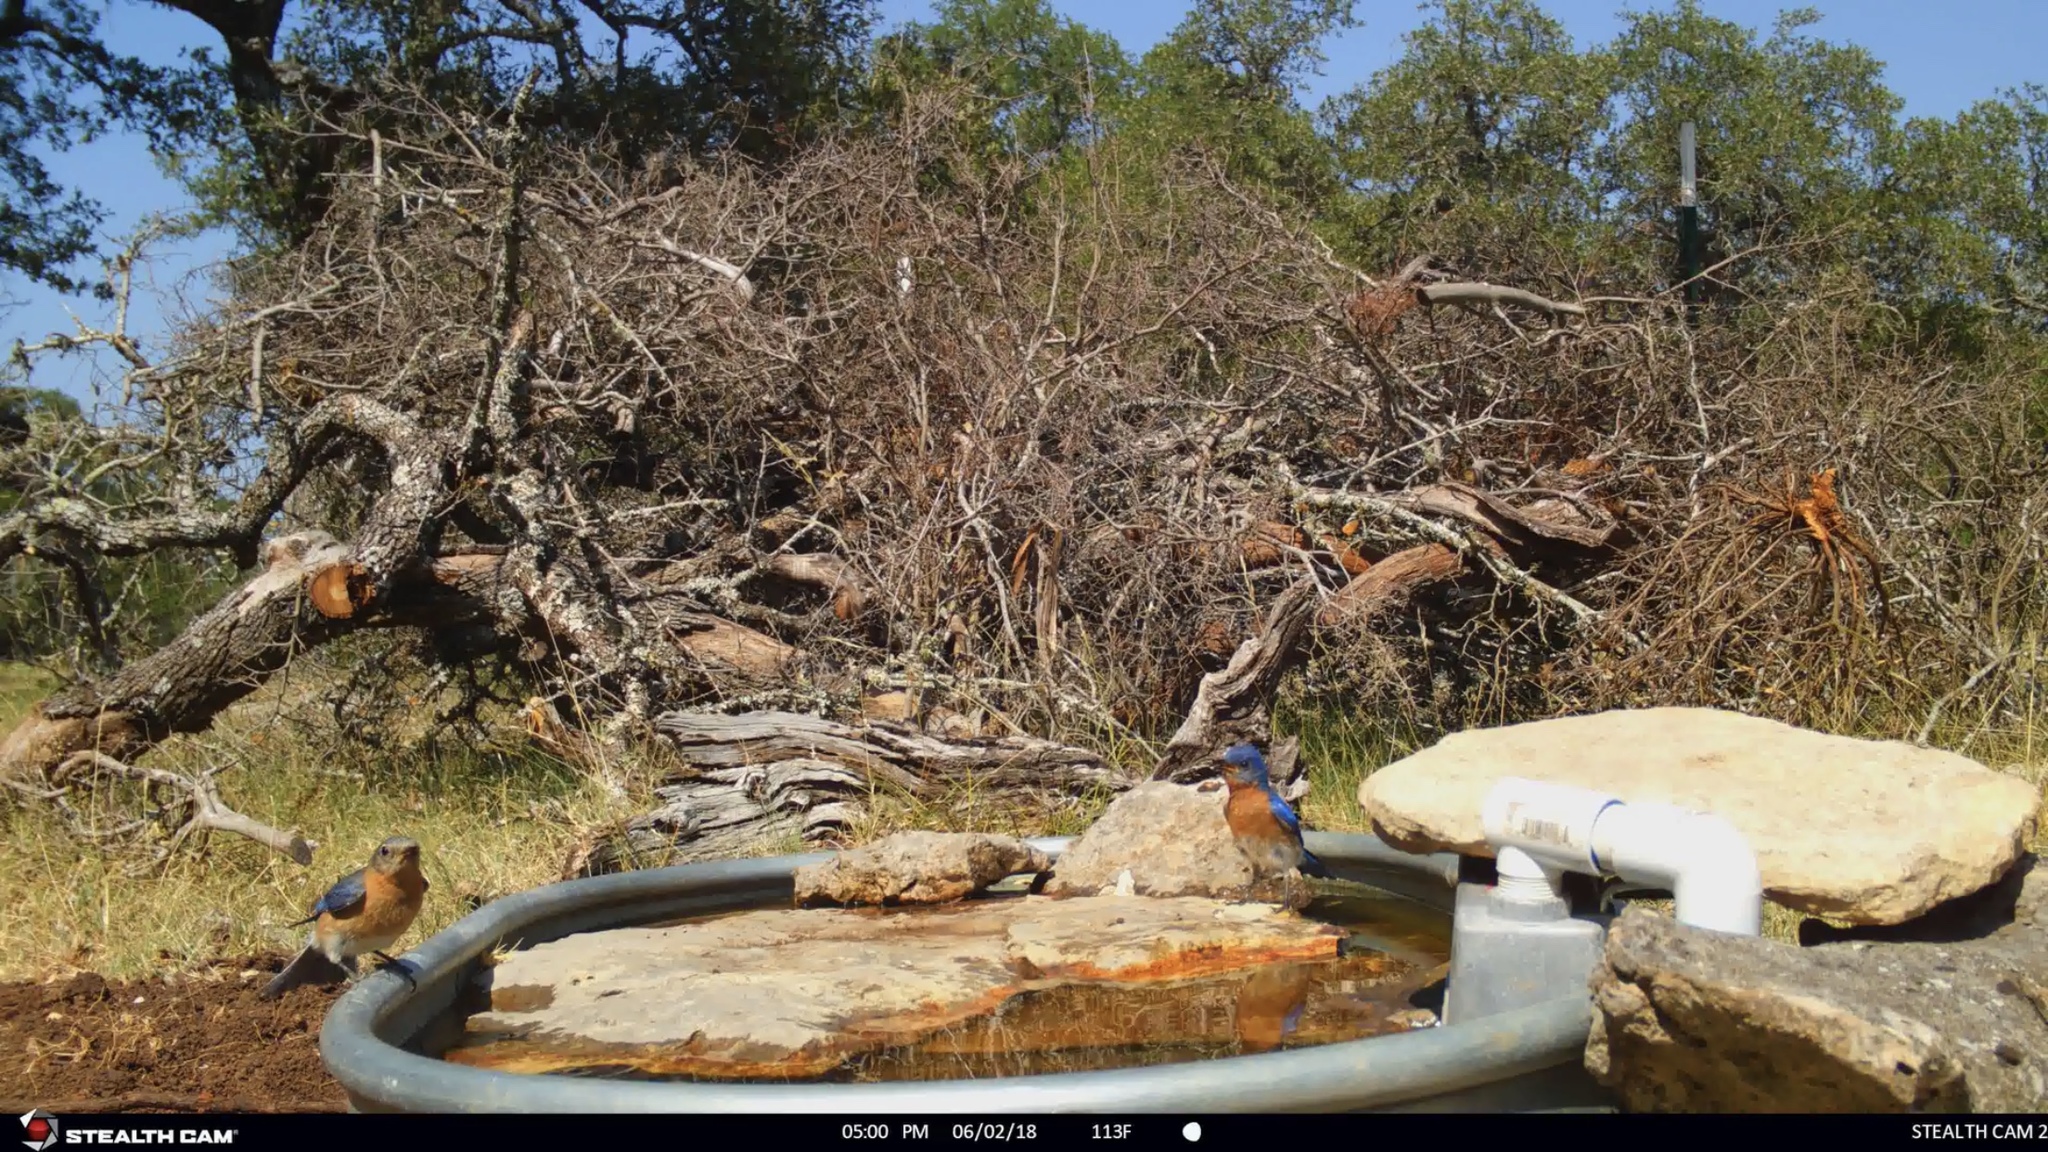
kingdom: Animalia
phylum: Chordata
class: Aves
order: Passeriformes
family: Turdidae
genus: Sialia
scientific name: Sialia sialis
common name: Eastern bluebird
